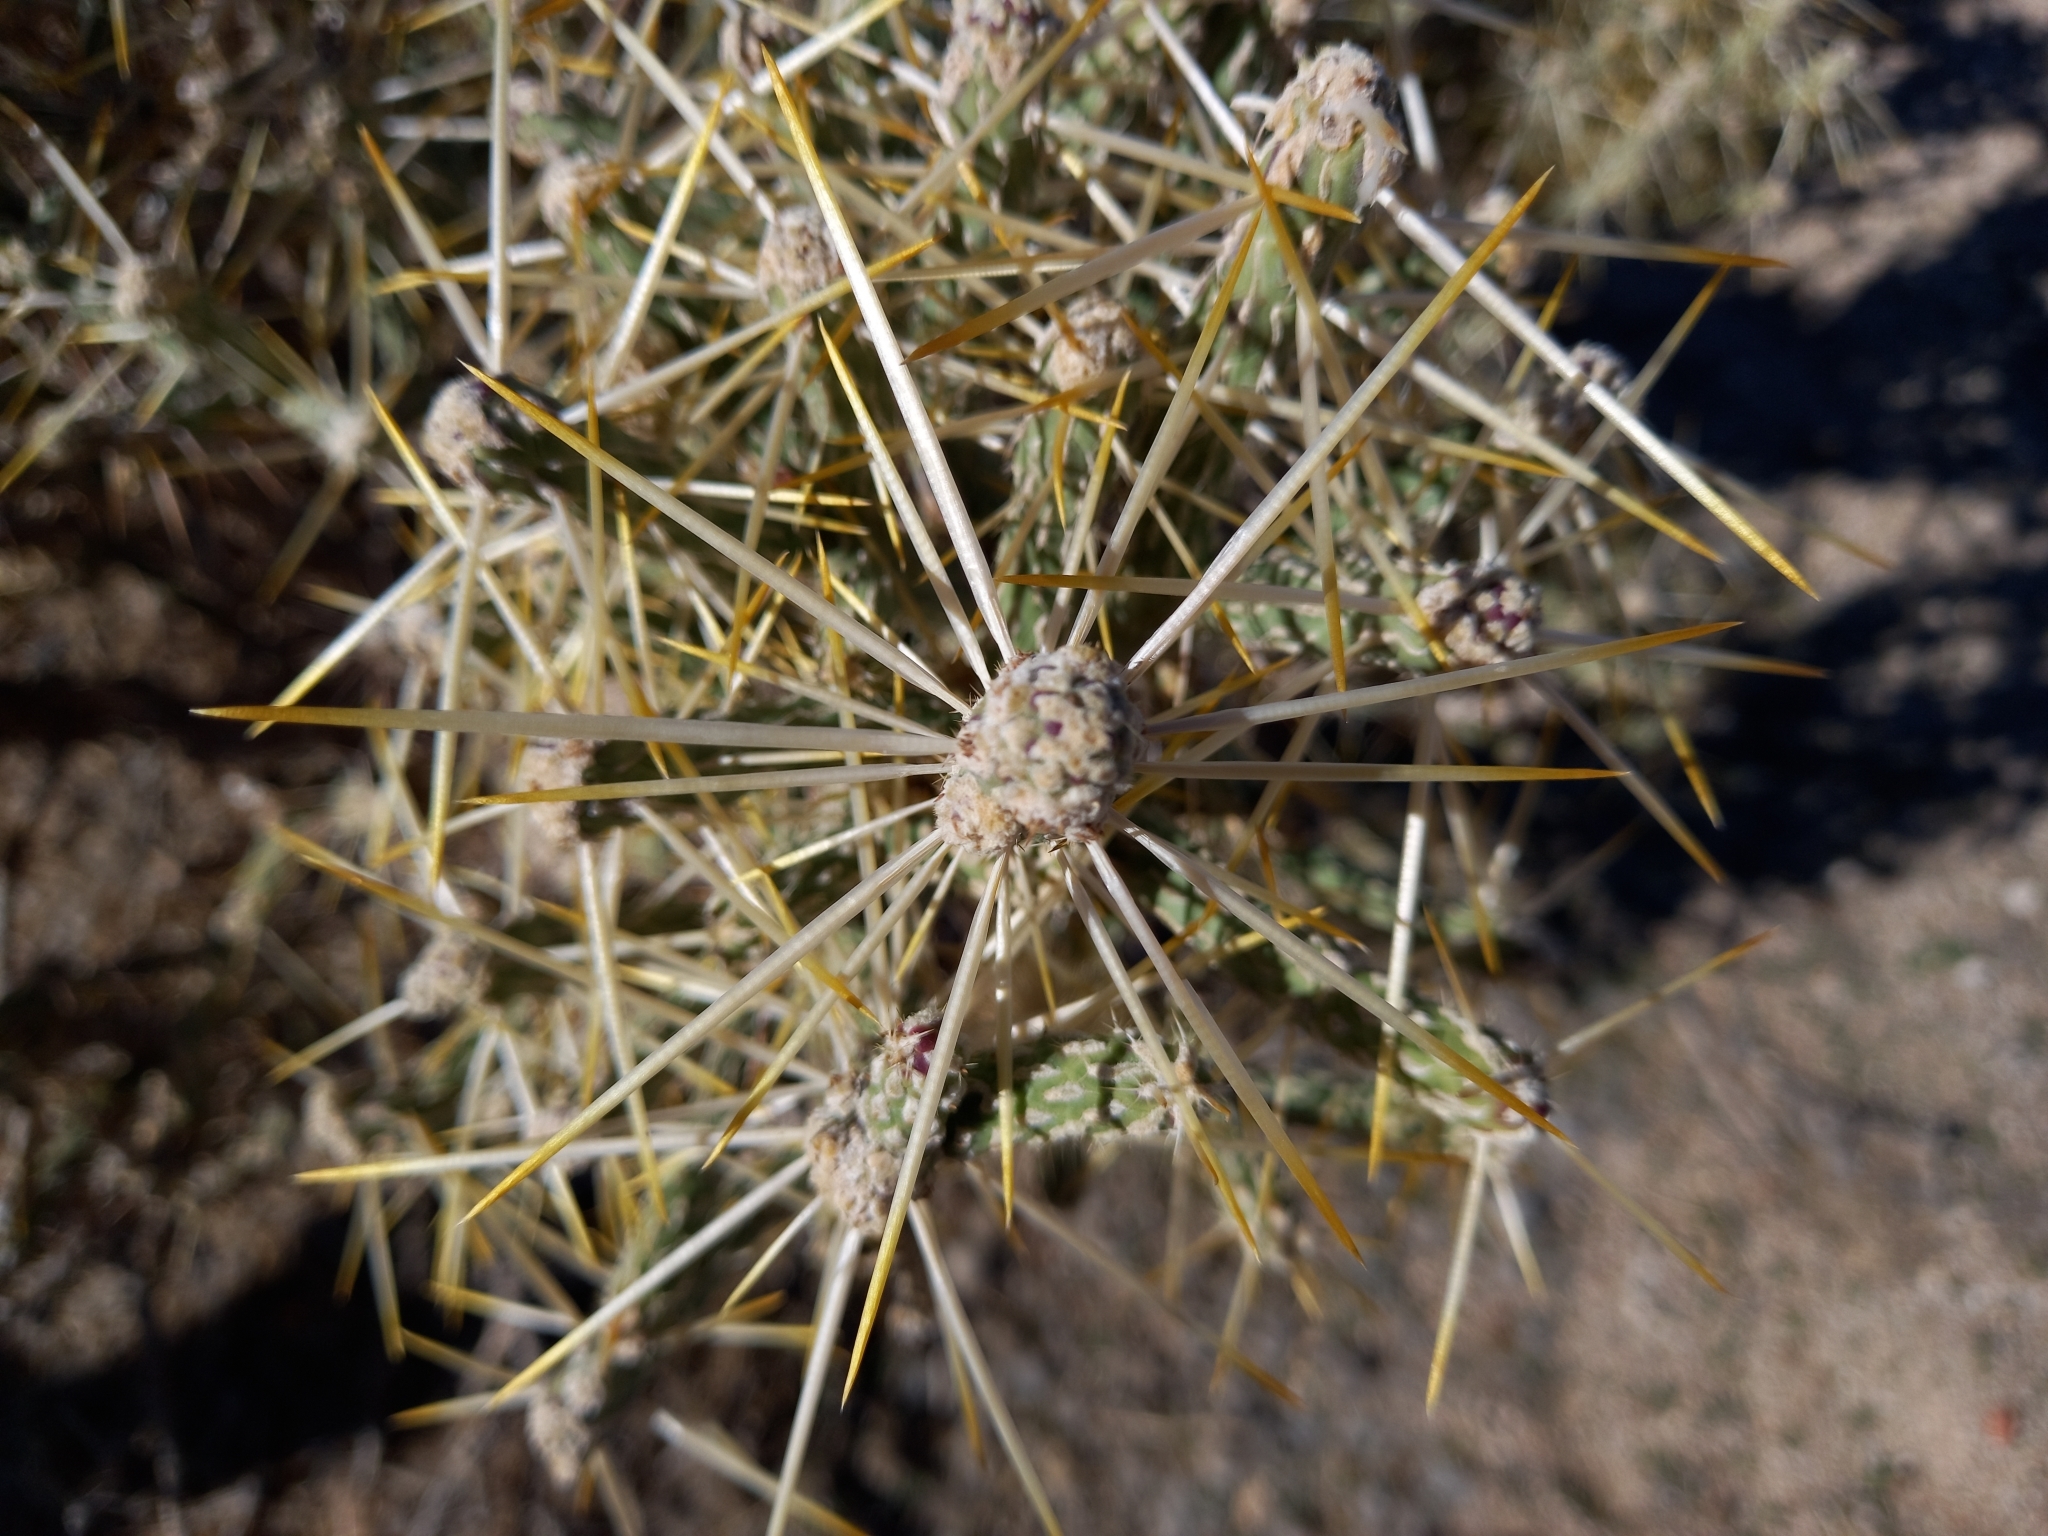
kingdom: Plantae
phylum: Tracheophyta
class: Magnoliopsida
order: Caryophyllales
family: Cactaceae
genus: Cylindropuntia
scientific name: Cylindropuntia ramosissima
